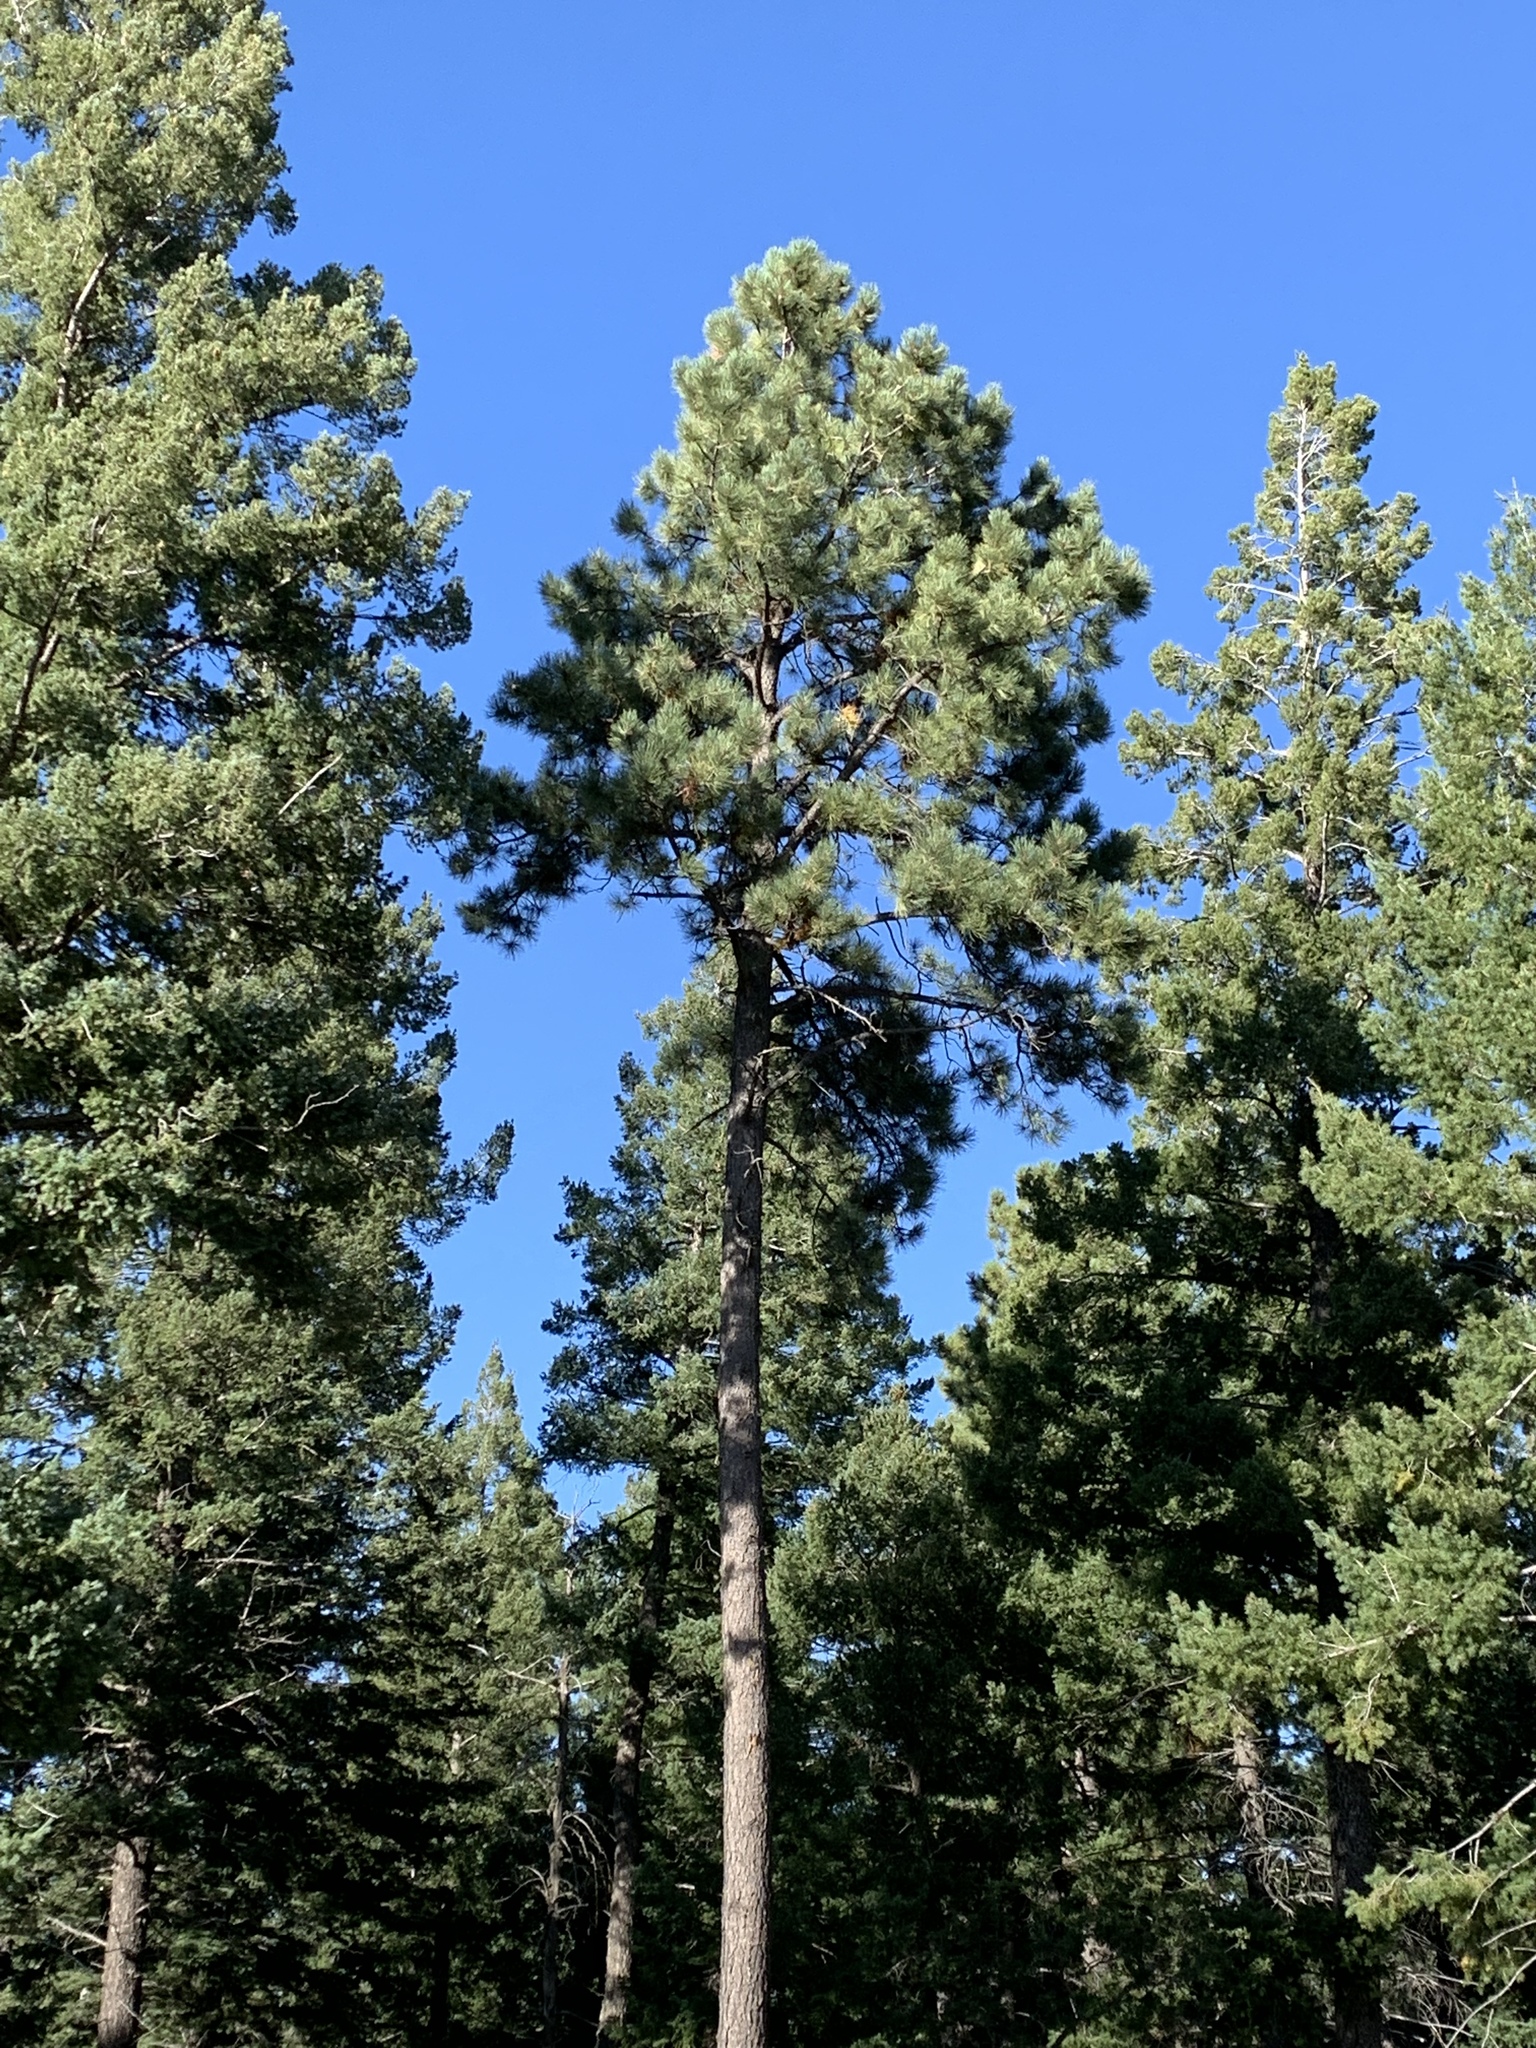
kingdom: Plantae
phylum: Tracheophyta
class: Pinopsida
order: Pinales
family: Pinaceae
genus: Pinus
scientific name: Pinus ponderosa
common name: Western yellow-pine
